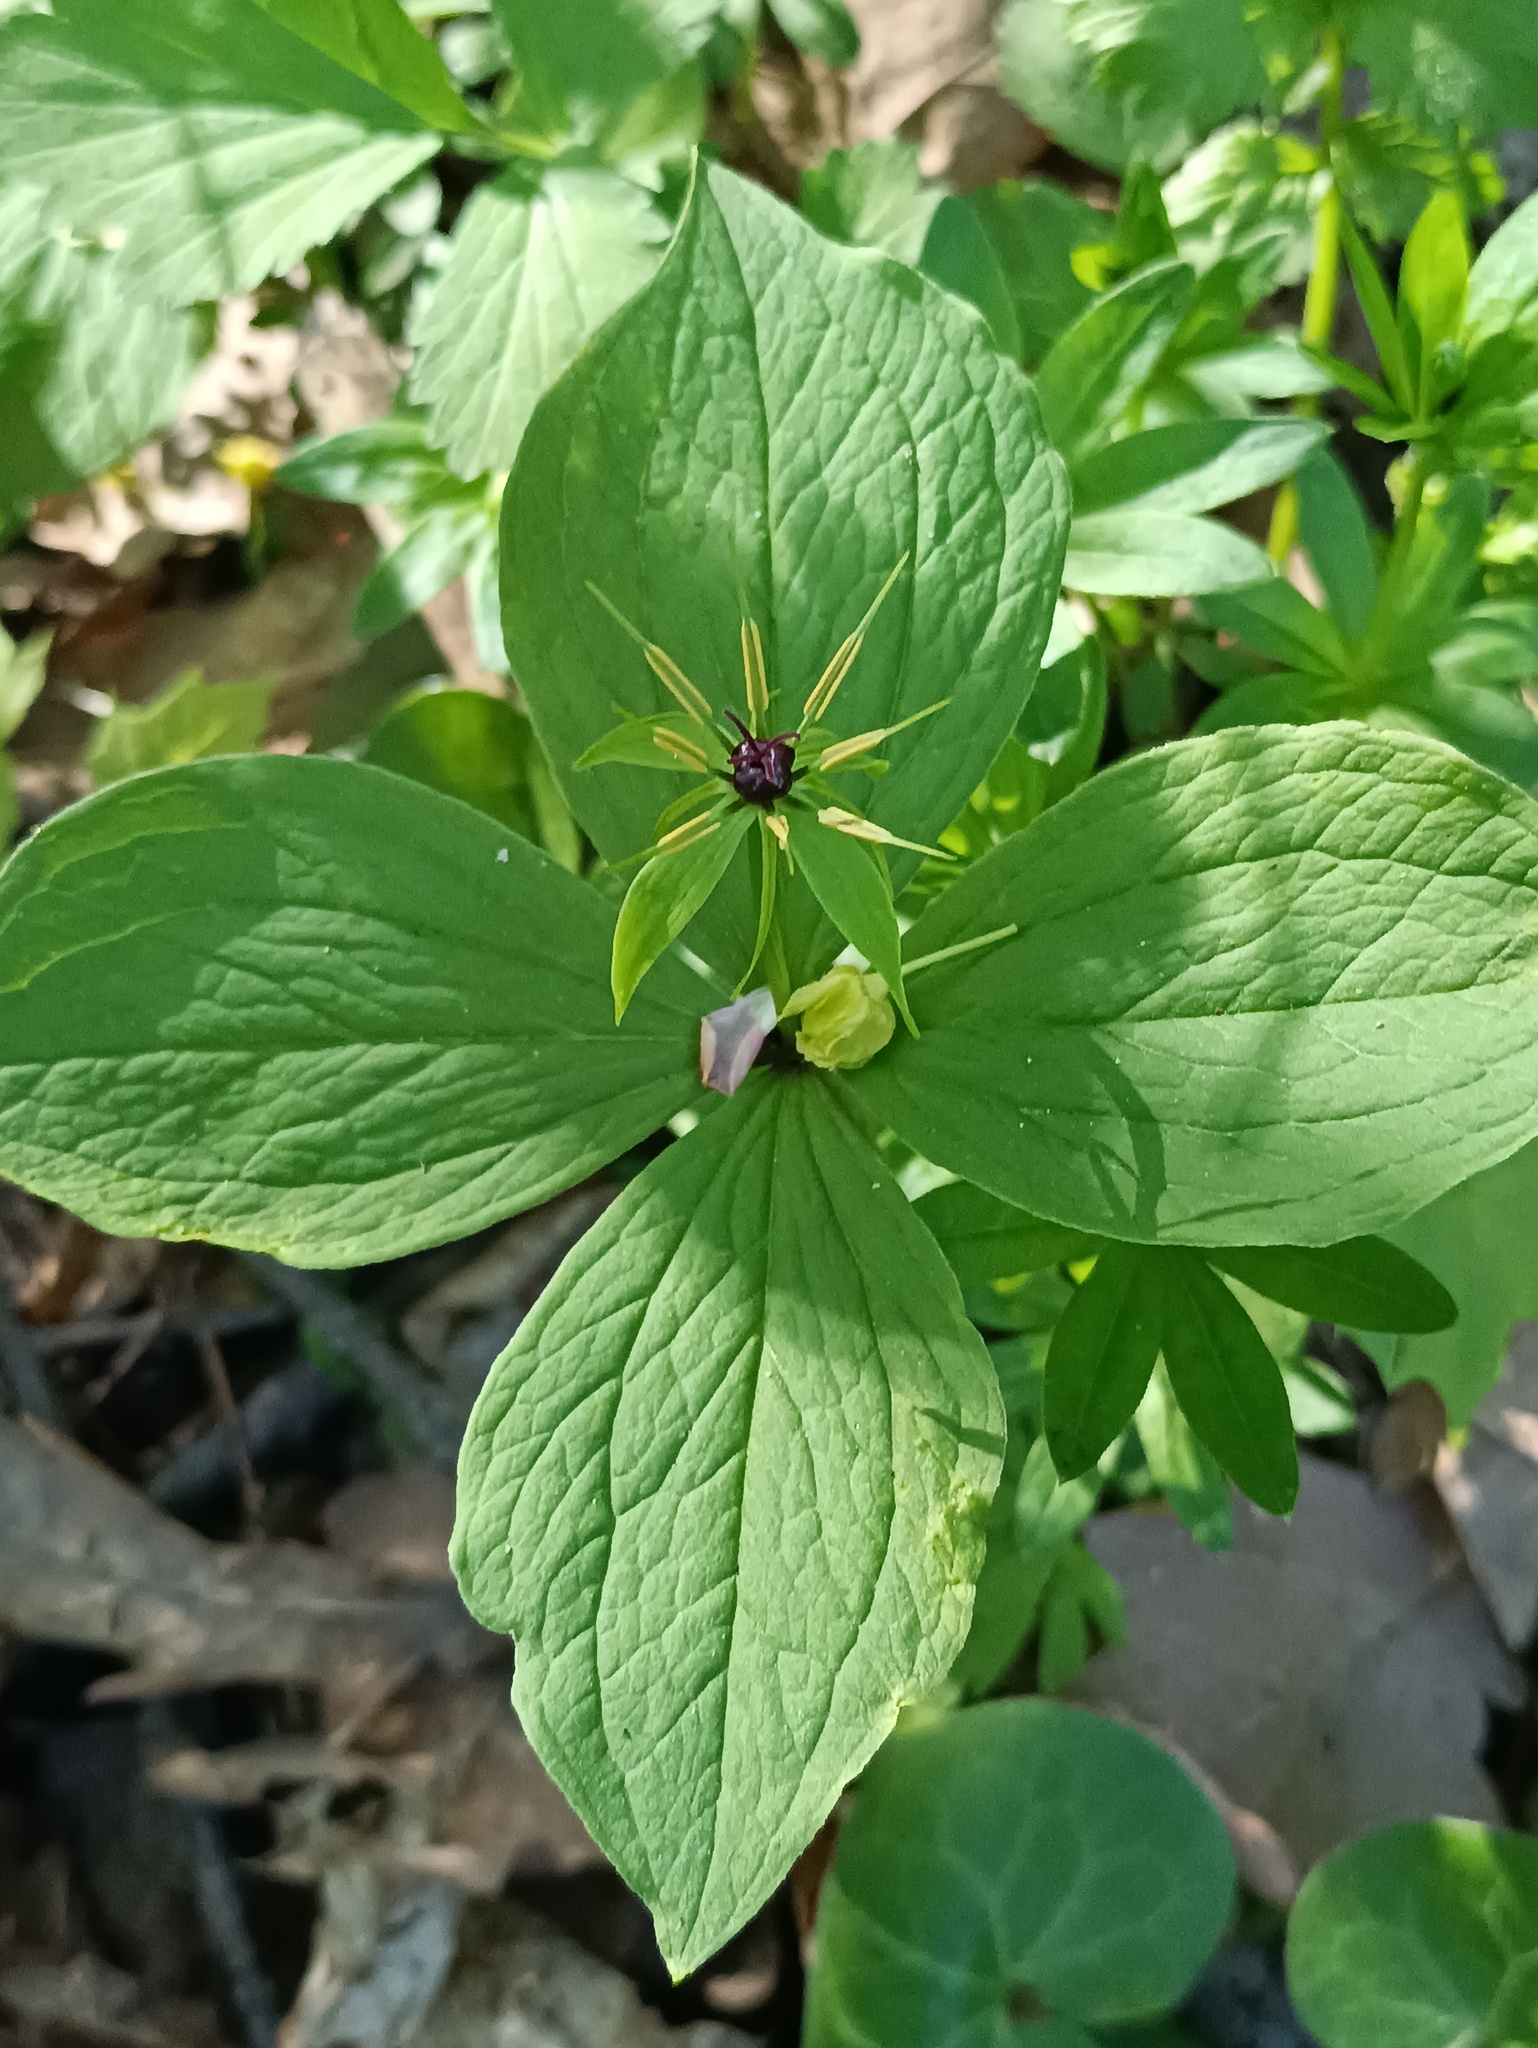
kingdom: Plantae
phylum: Tracheophyta
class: Liliopsida
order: Liliales
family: Melanthiaceae
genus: Paris
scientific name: Paris quadrifolia
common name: Herb-paris
